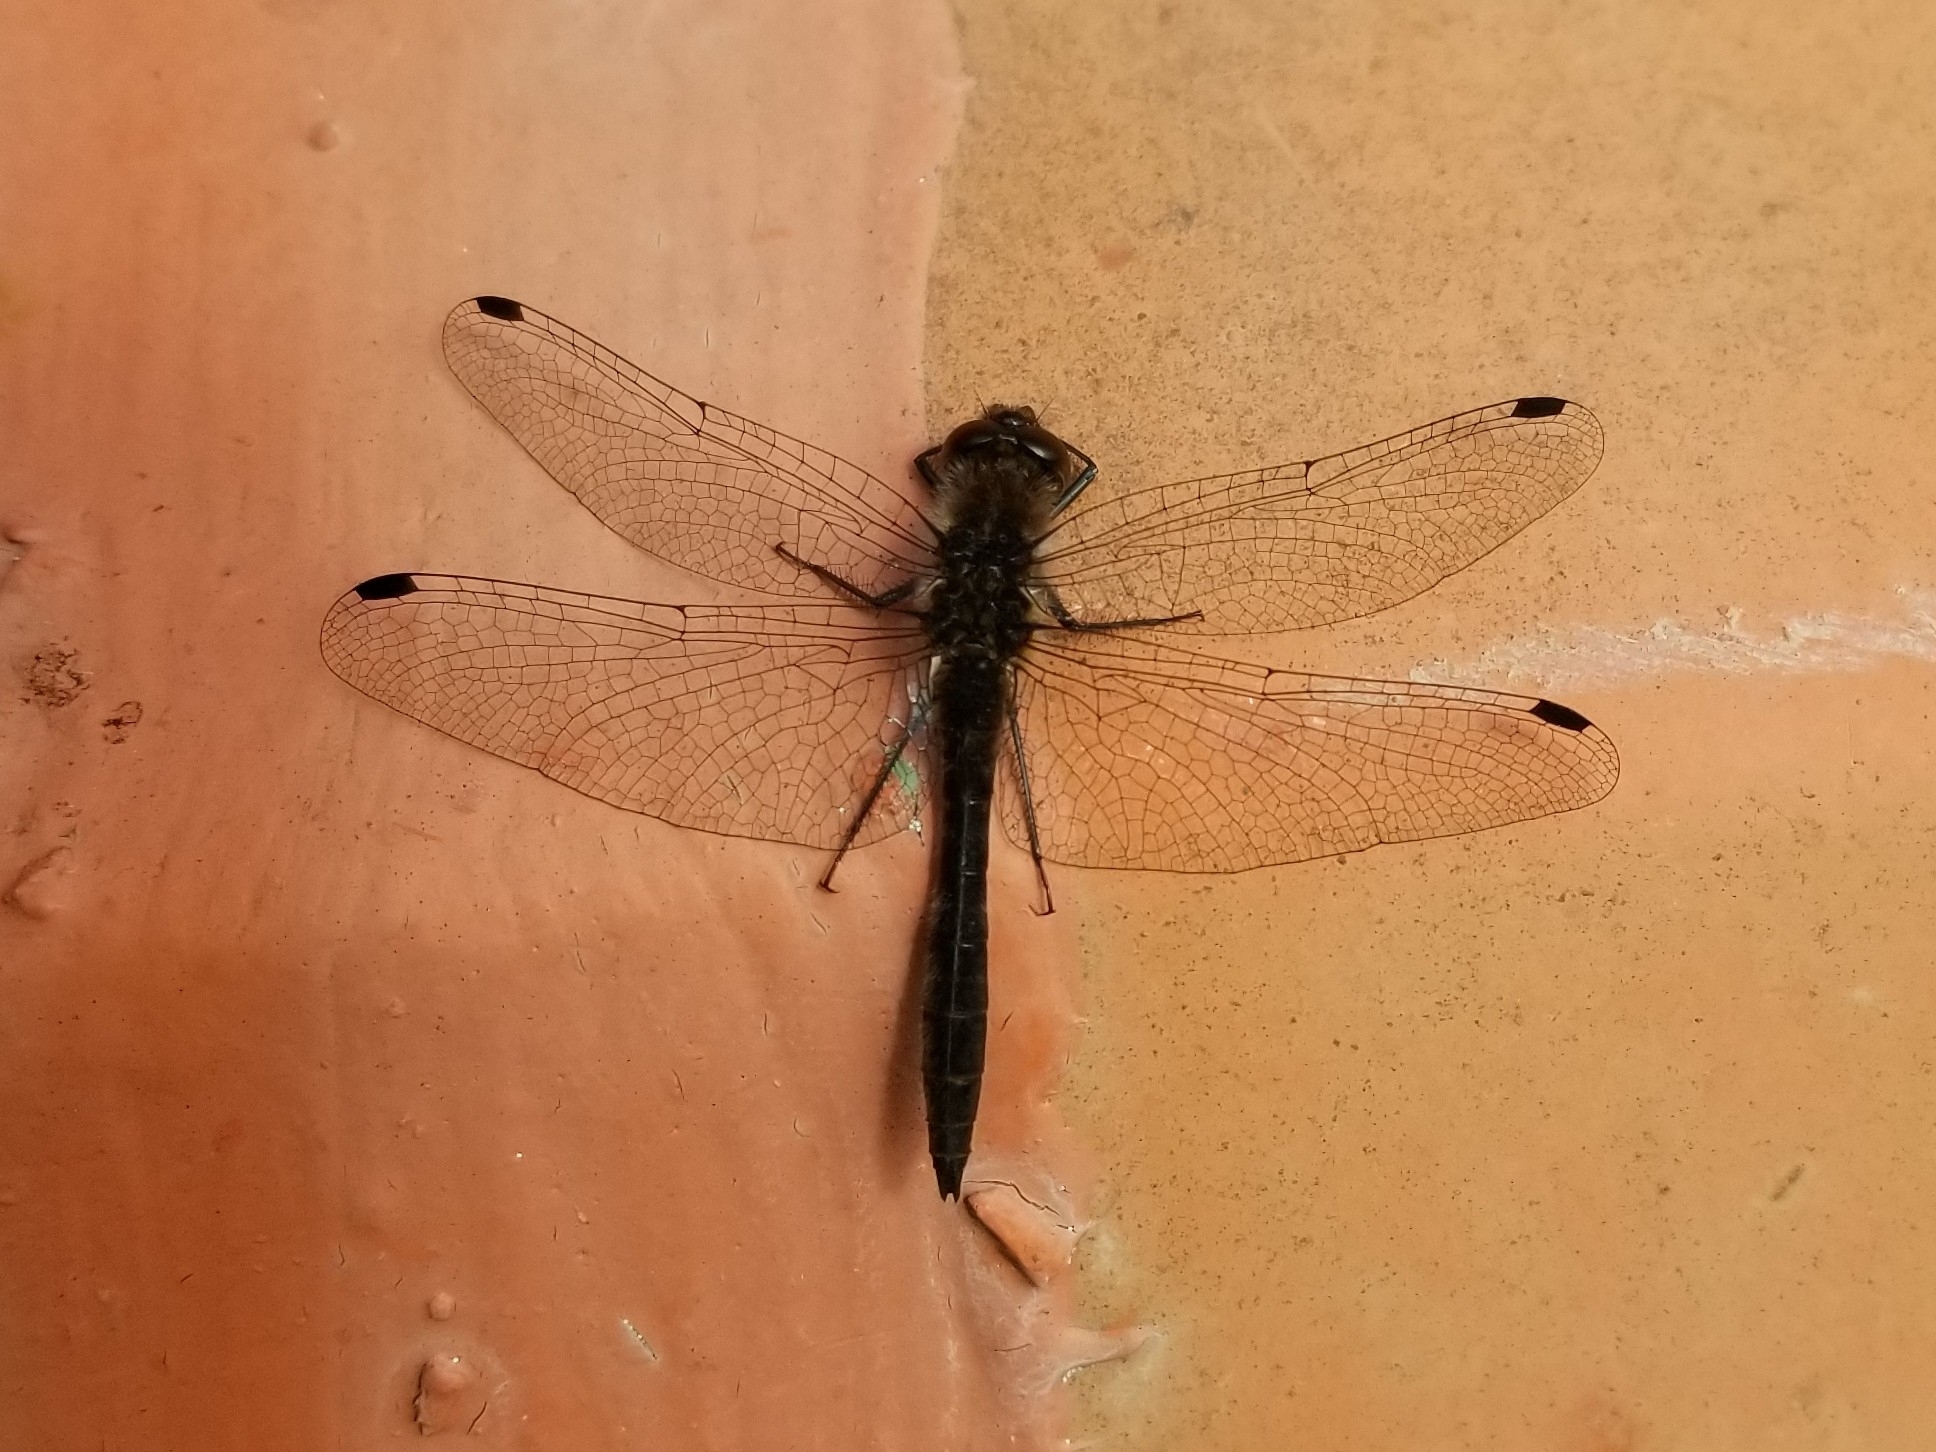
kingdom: Animalia
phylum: Arthropoda
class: Insecta
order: Odonata
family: Libellulidae
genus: Sympetrum
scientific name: Sympetrum danae
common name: Black darter
